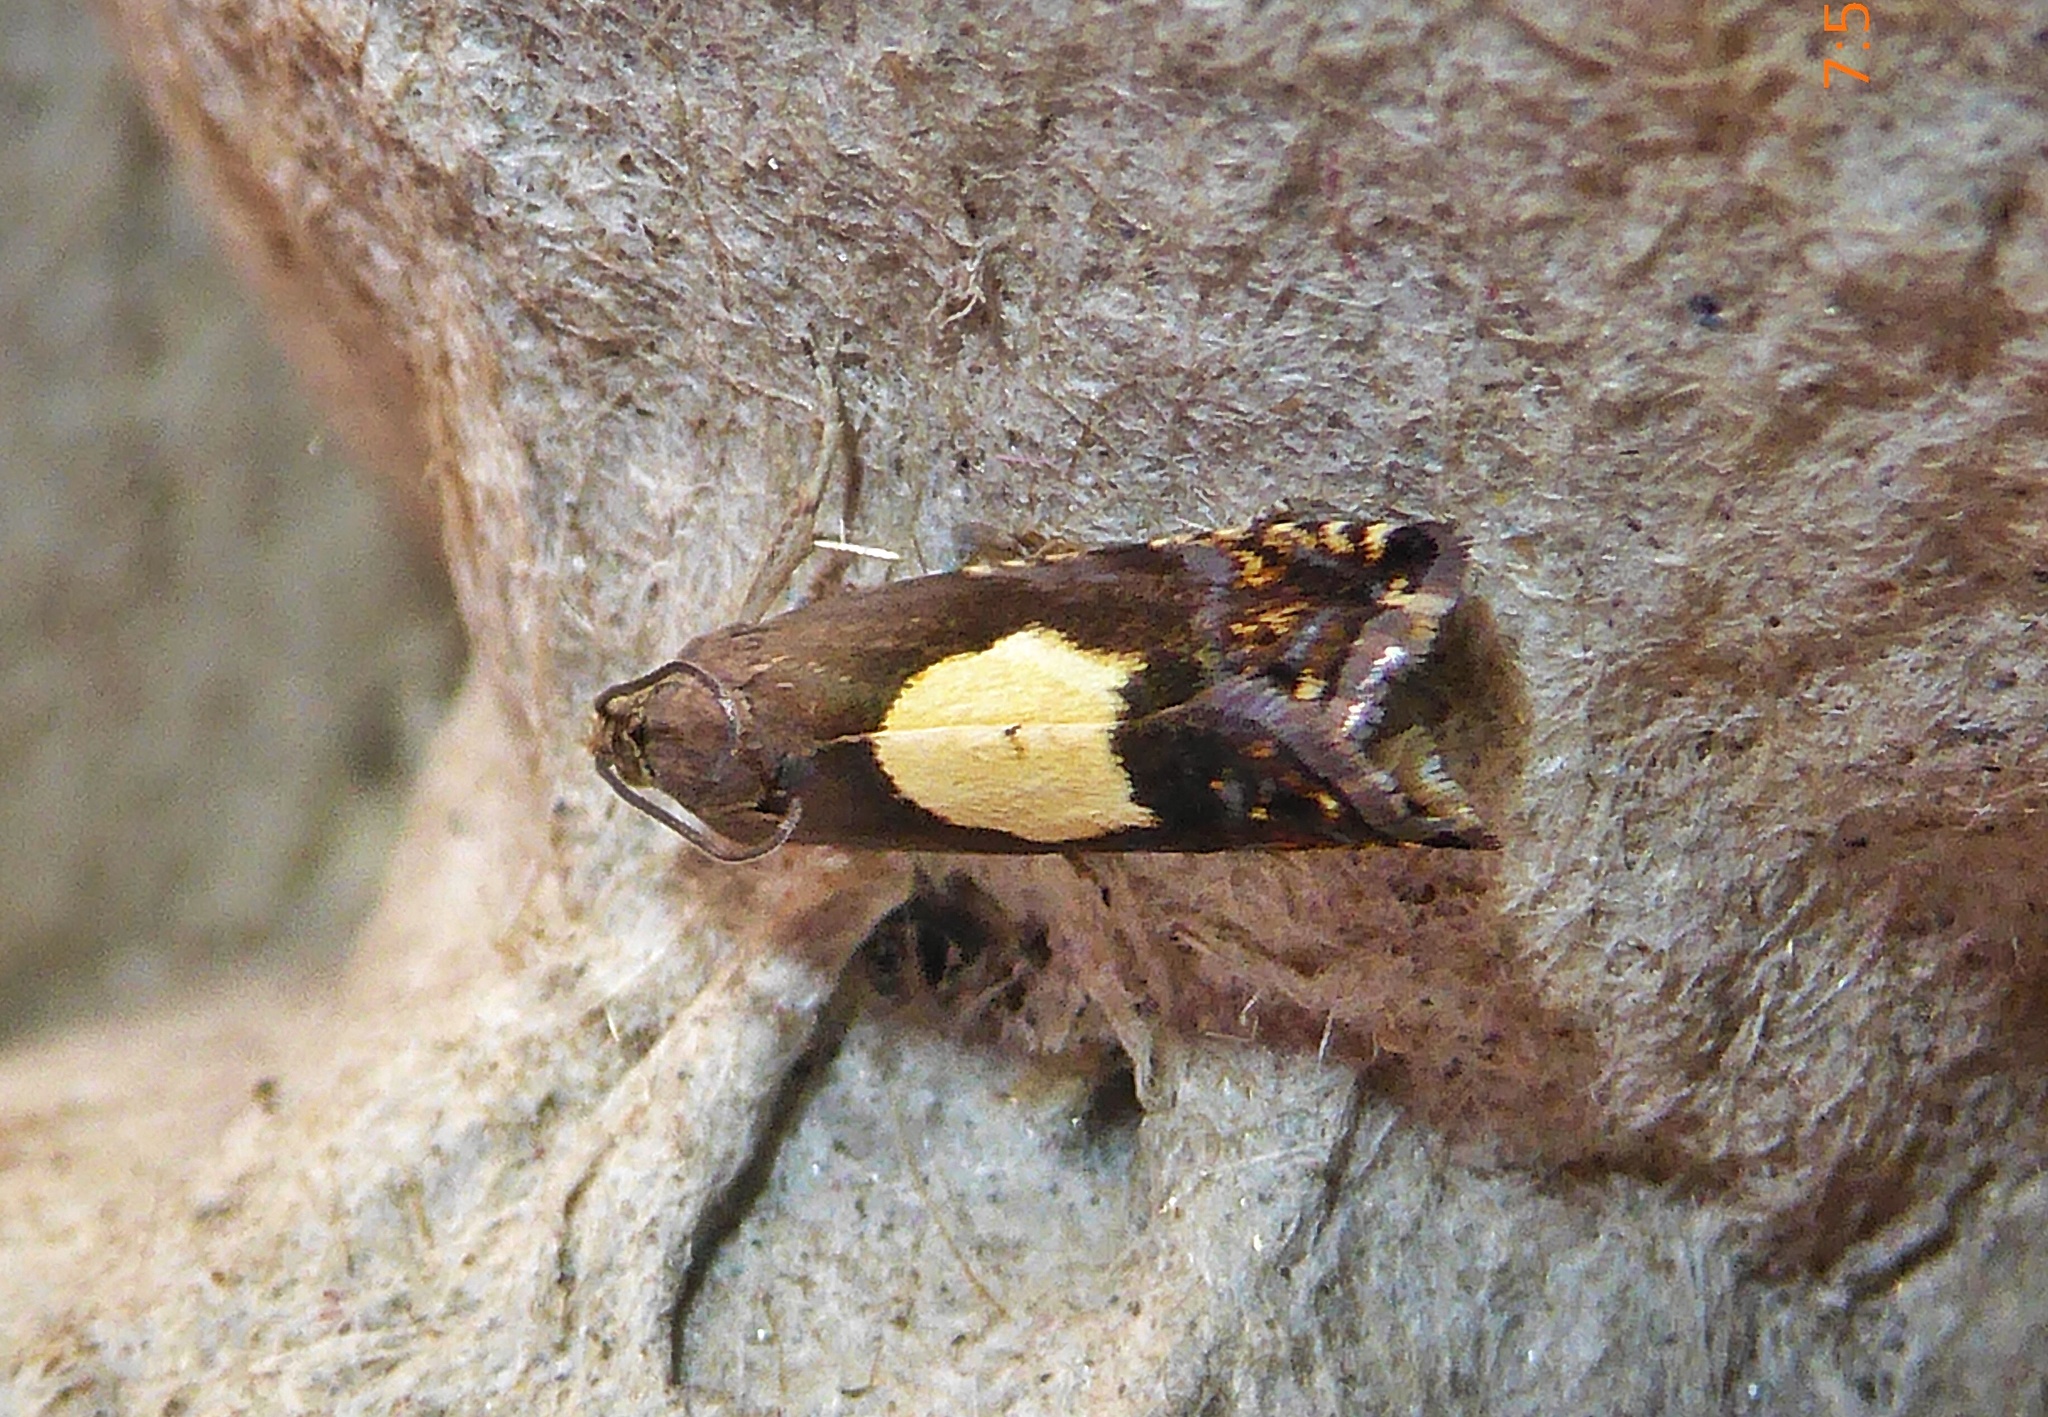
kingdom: Animalia
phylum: Arthropoda
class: Insecta
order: Lepidoptera
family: Tortricidae
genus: Pammene
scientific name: Pammene regiana
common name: Regal piercer
